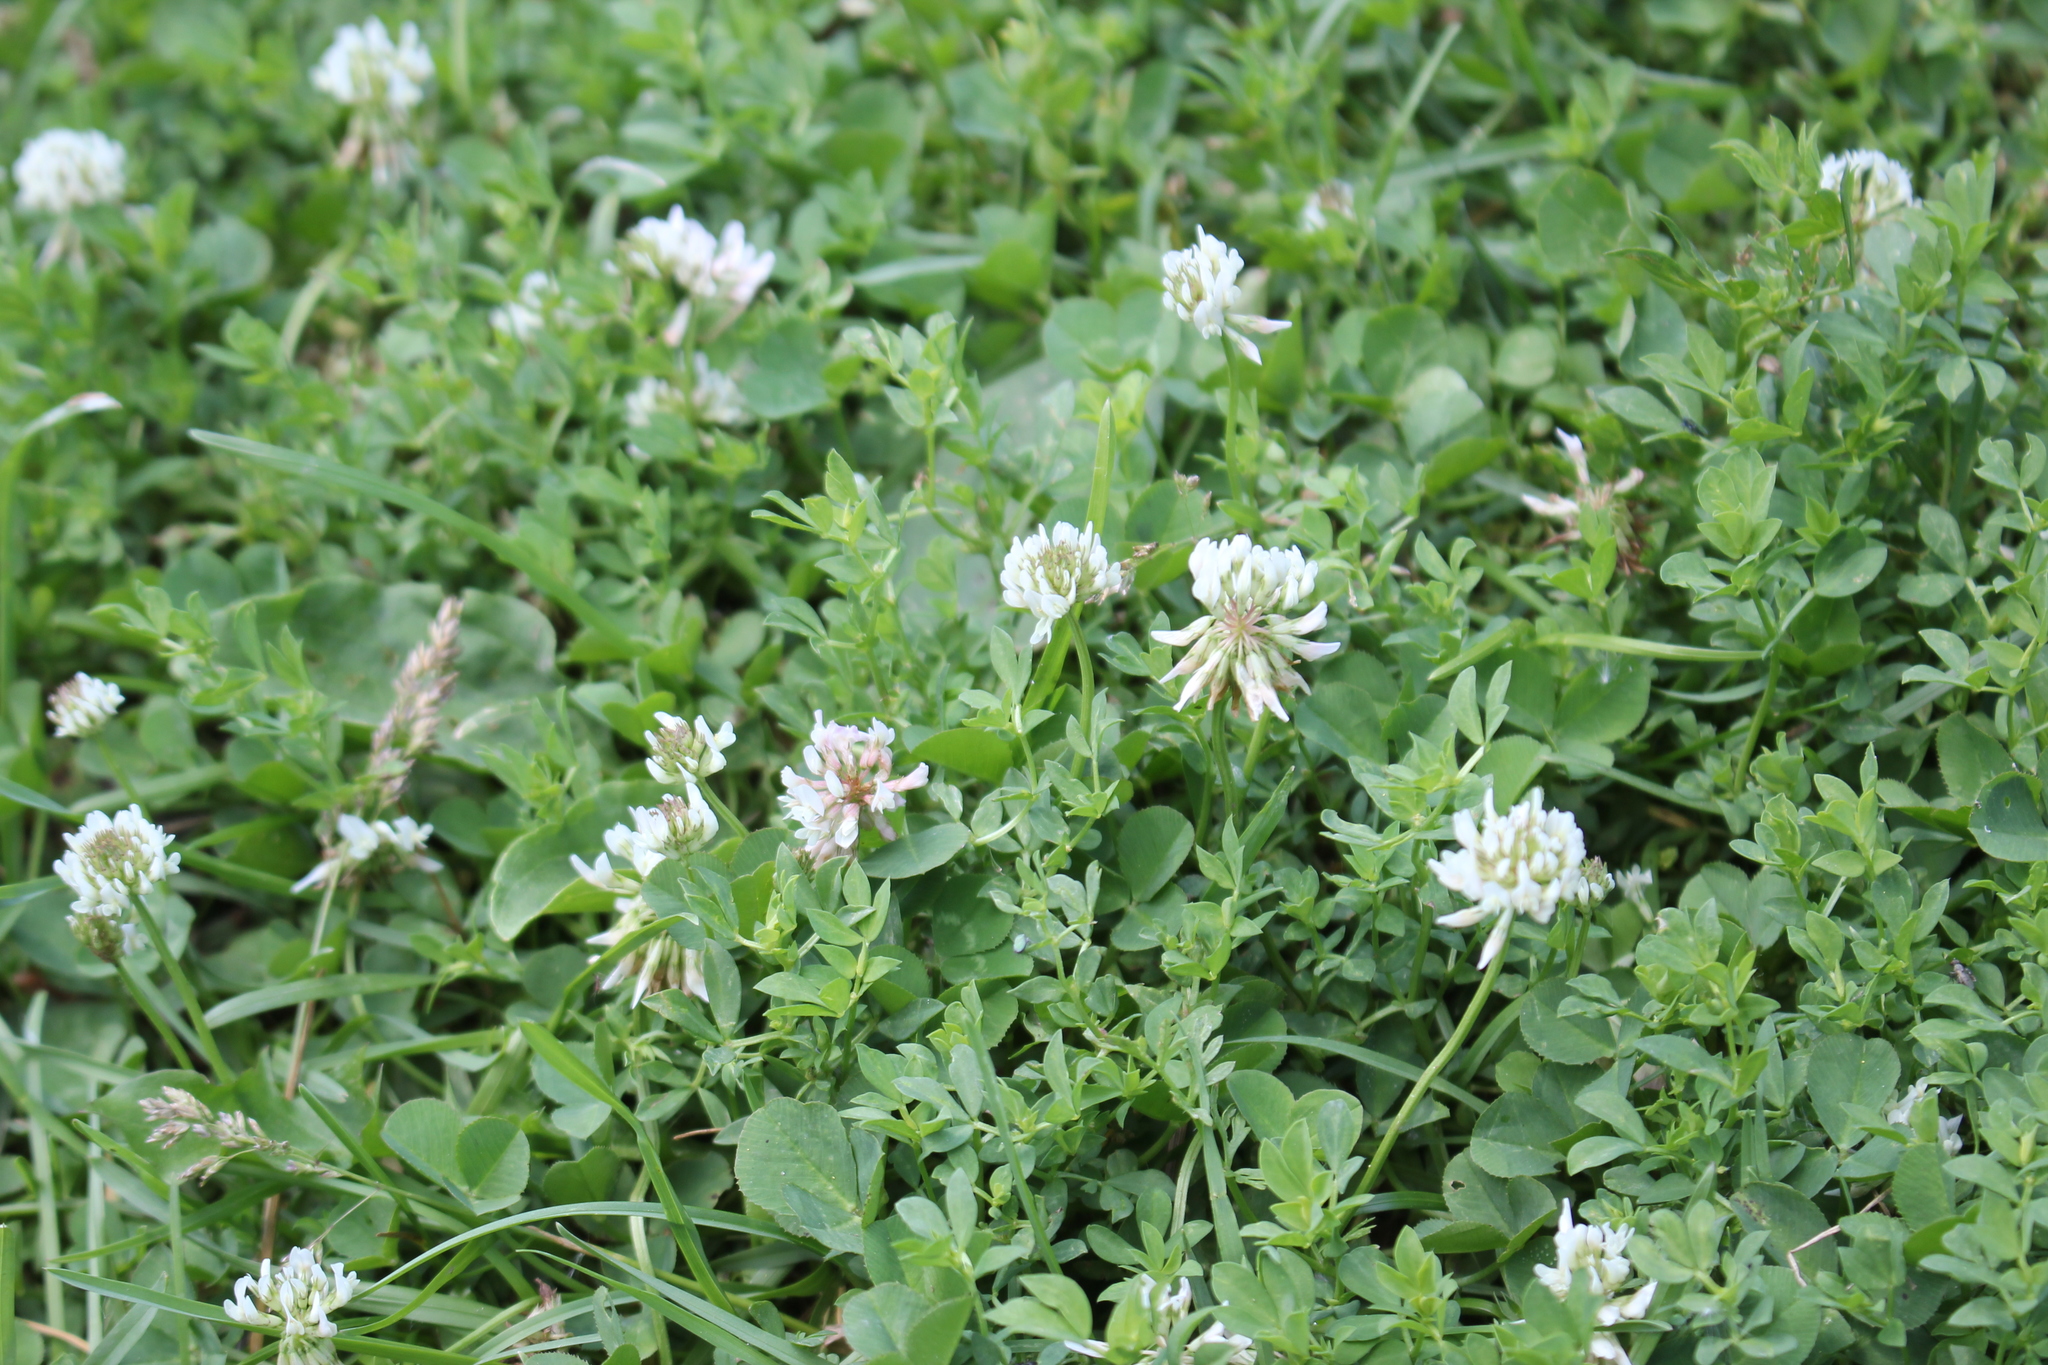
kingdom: Plantae
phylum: Tracheophyta
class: Magnoliopsida
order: Fabales
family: Fabaceae
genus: Trifolium
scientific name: Trifolium repens
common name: White clover
